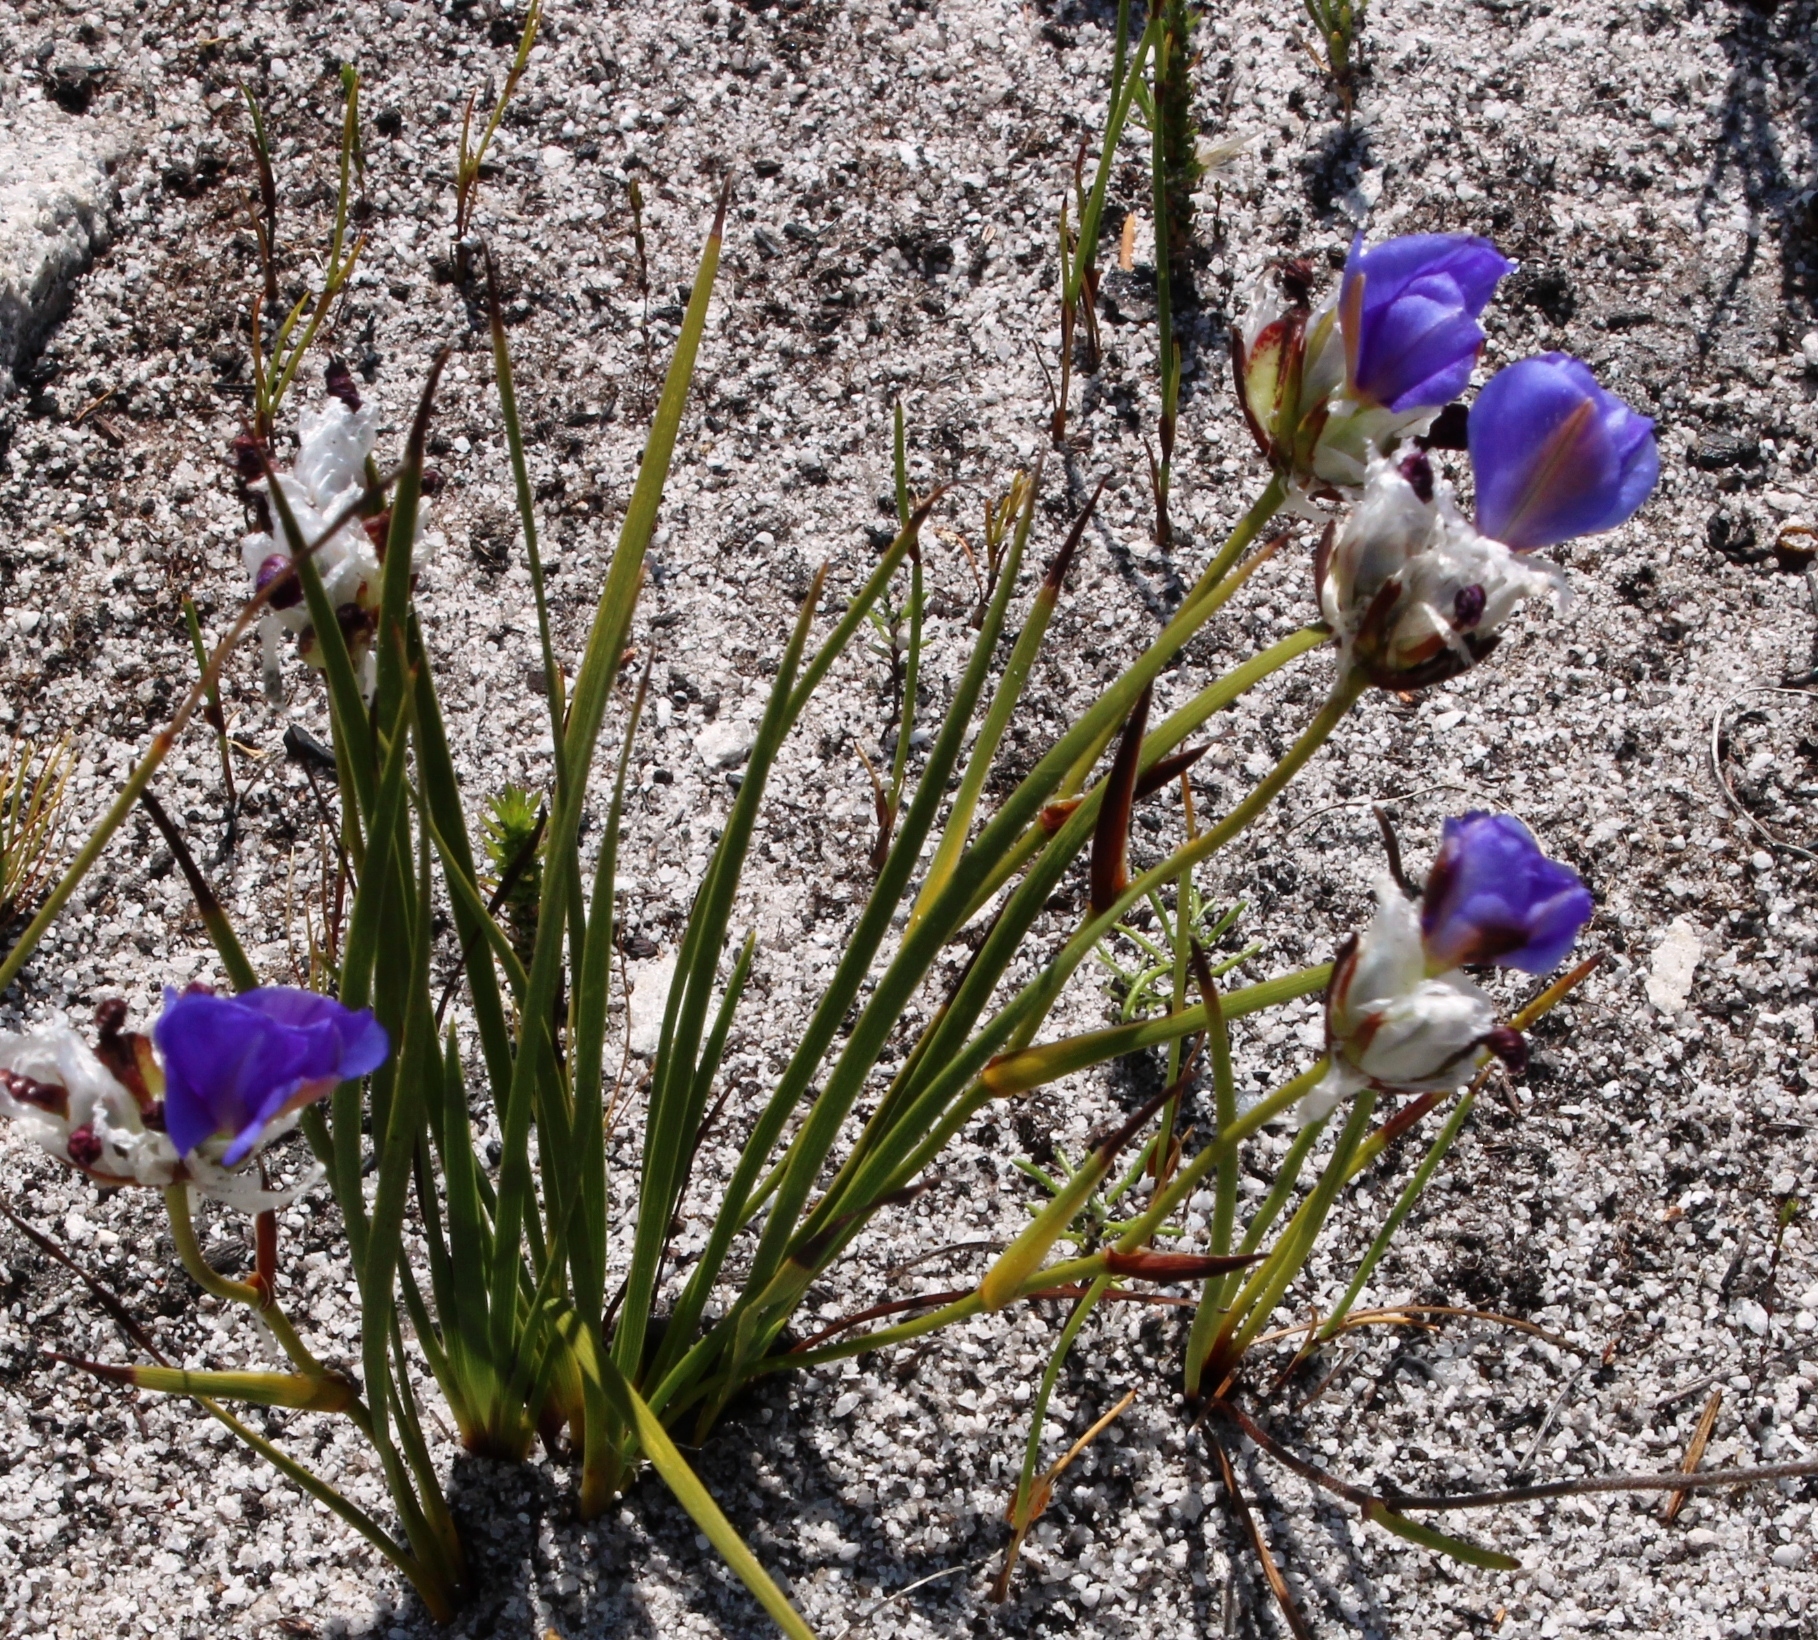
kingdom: Plantae
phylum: Tracheophyta
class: Liliopsida
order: Asparagales
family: Iridaceae
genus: Aristea
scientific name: Aristea oligocephala
